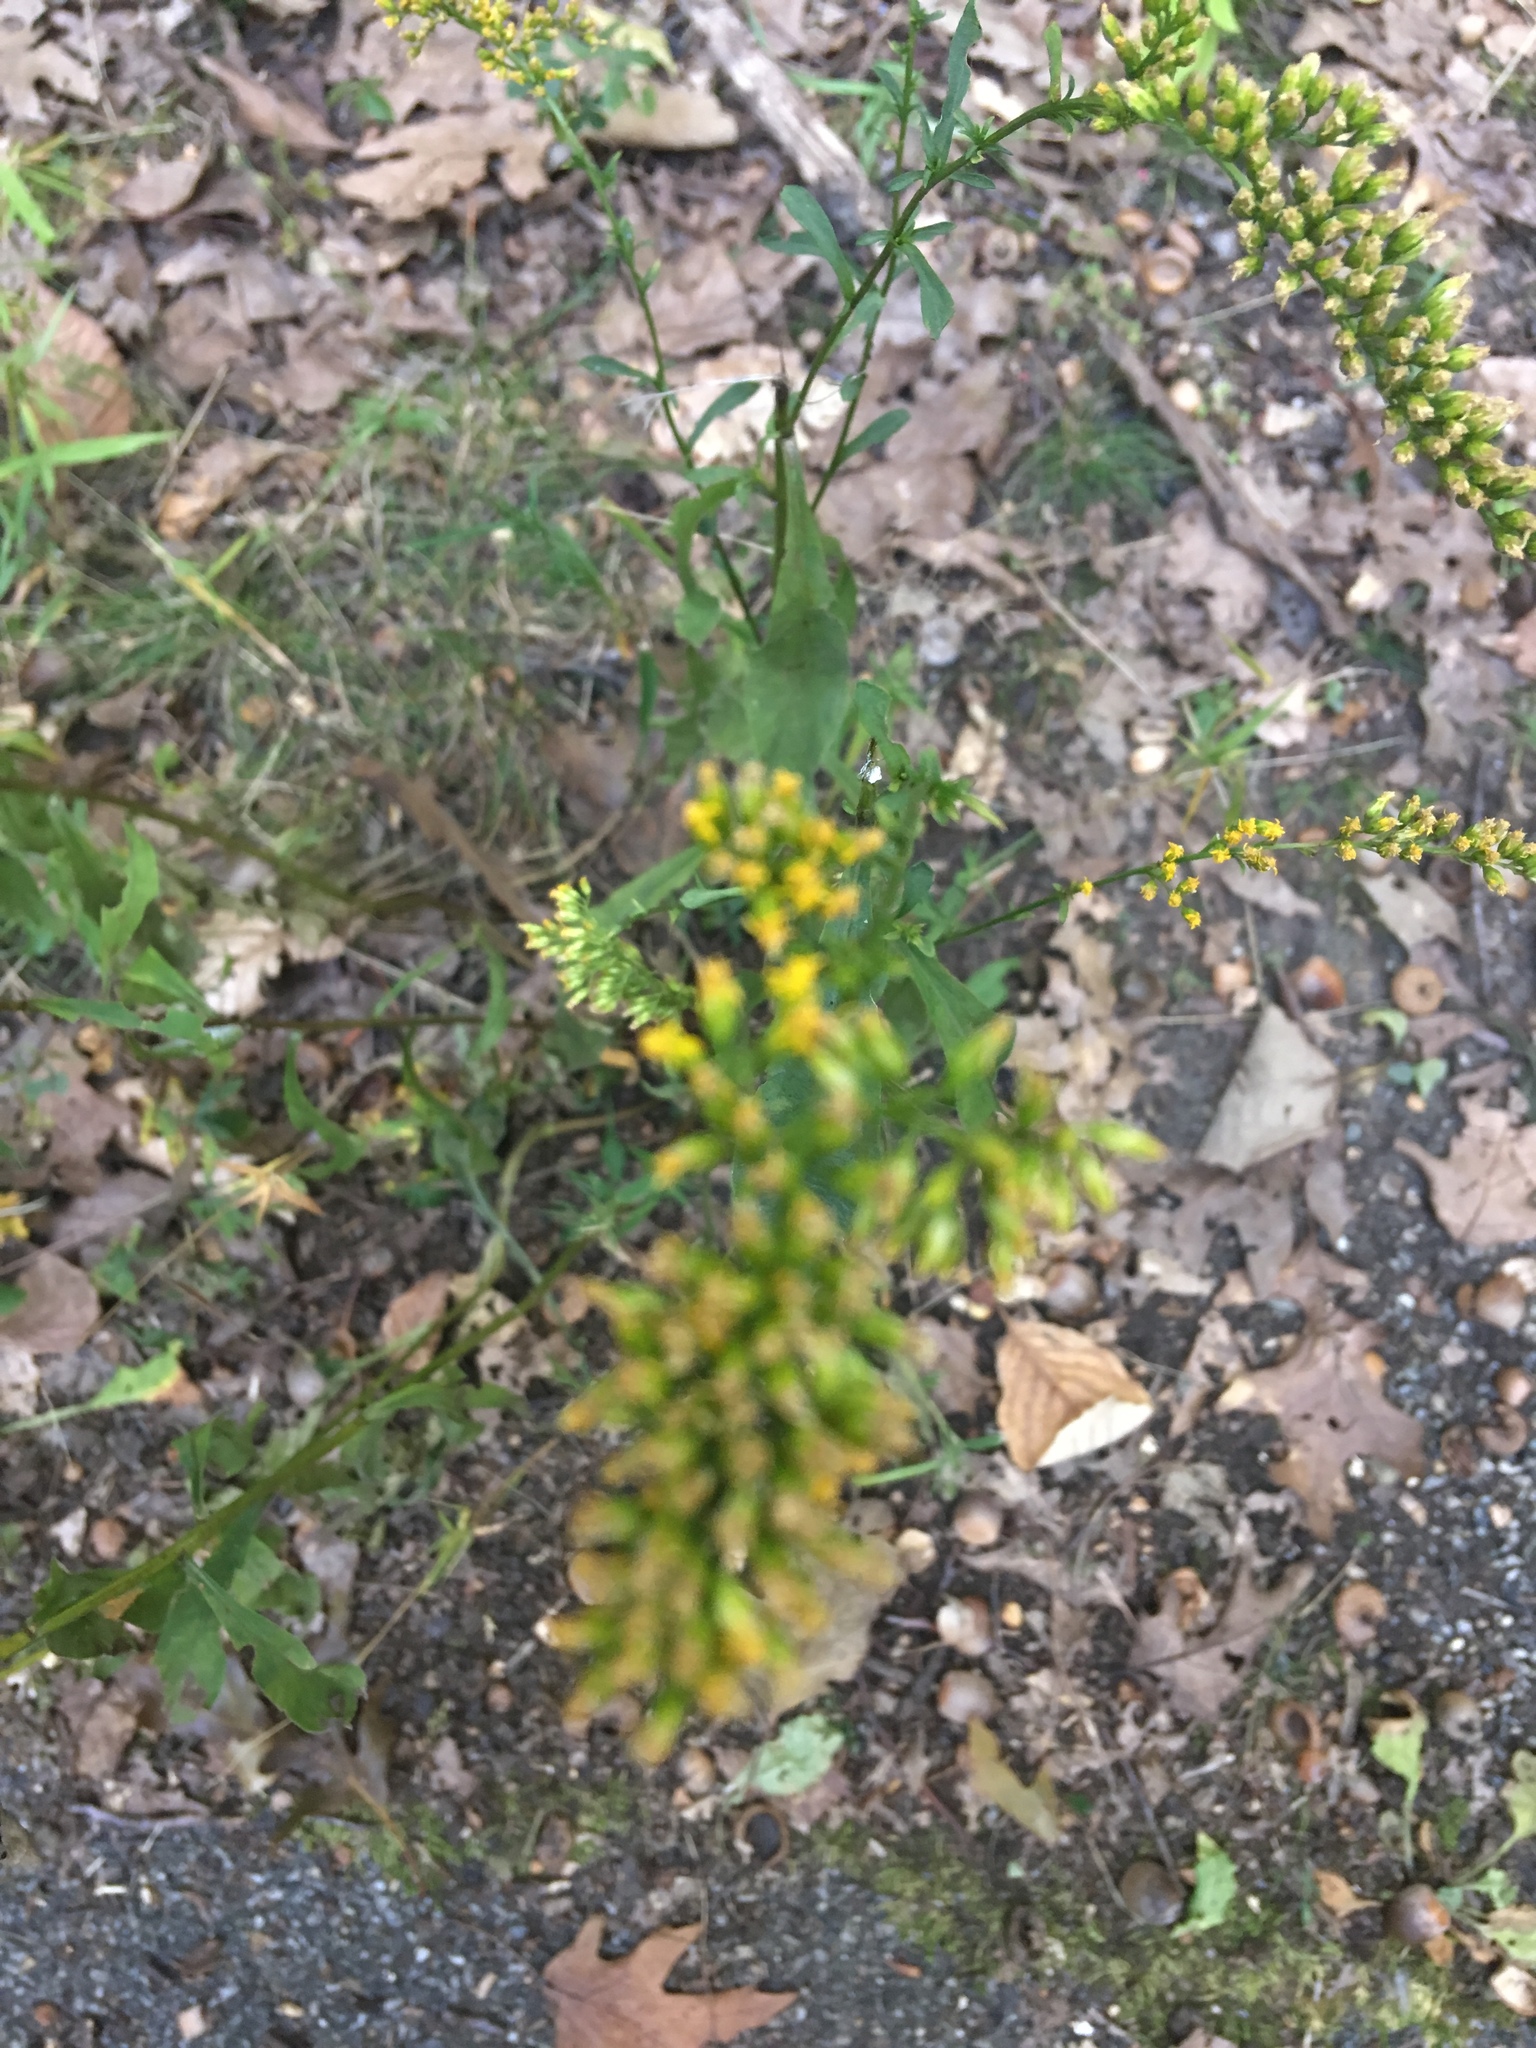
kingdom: Plantae
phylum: Tracheophyta
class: Magnoliopsida
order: Asterales
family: Asteraceae
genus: Solidago
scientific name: Solidago juncea
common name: Early goldenrod
